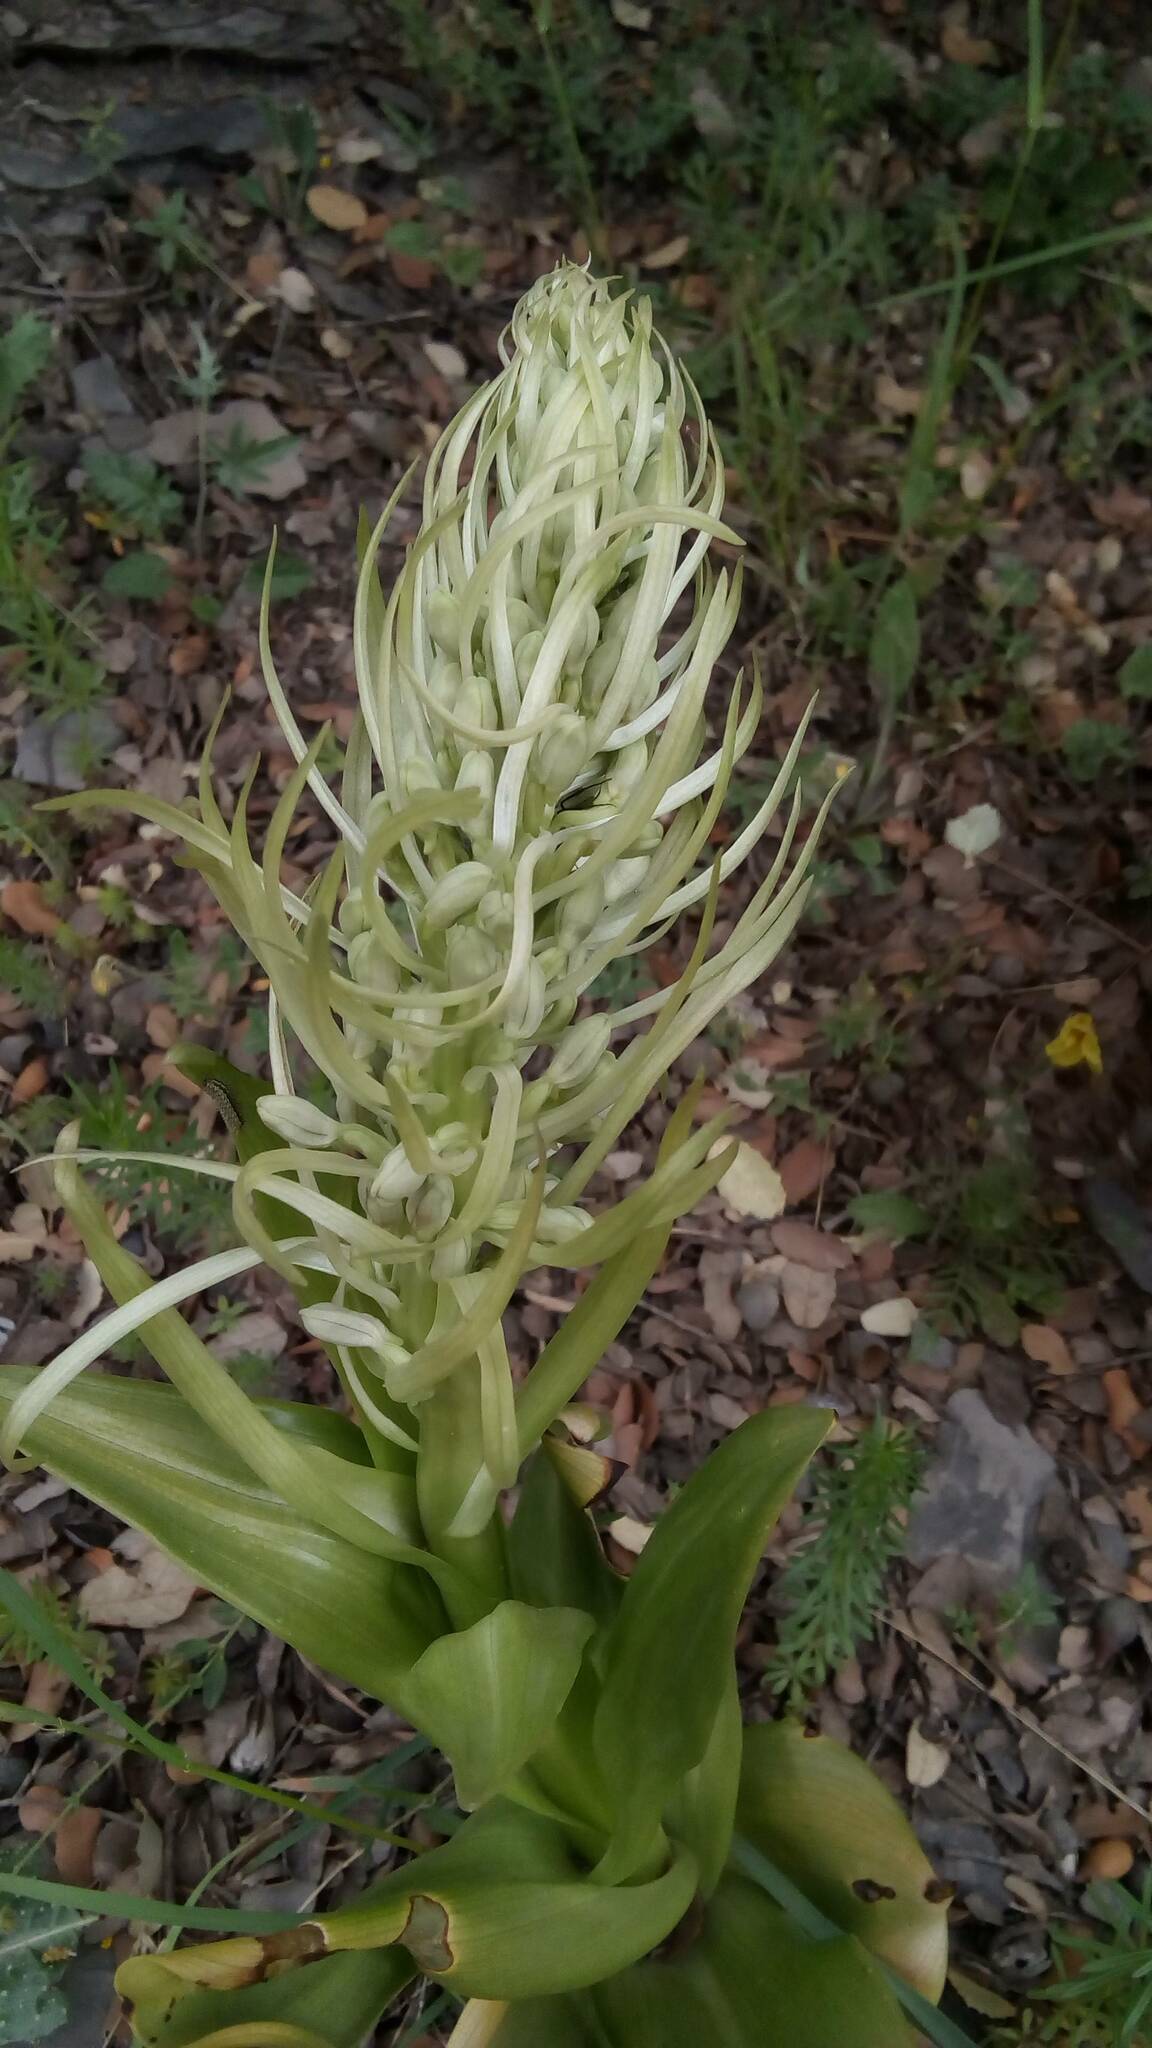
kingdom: Plantae
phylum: Tracheophyta
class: Liliopsida
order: Asparagales
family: Orchidaceae
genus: Himantoglossum
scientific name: Himantoglossum hircinum
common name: Lizard orchid
